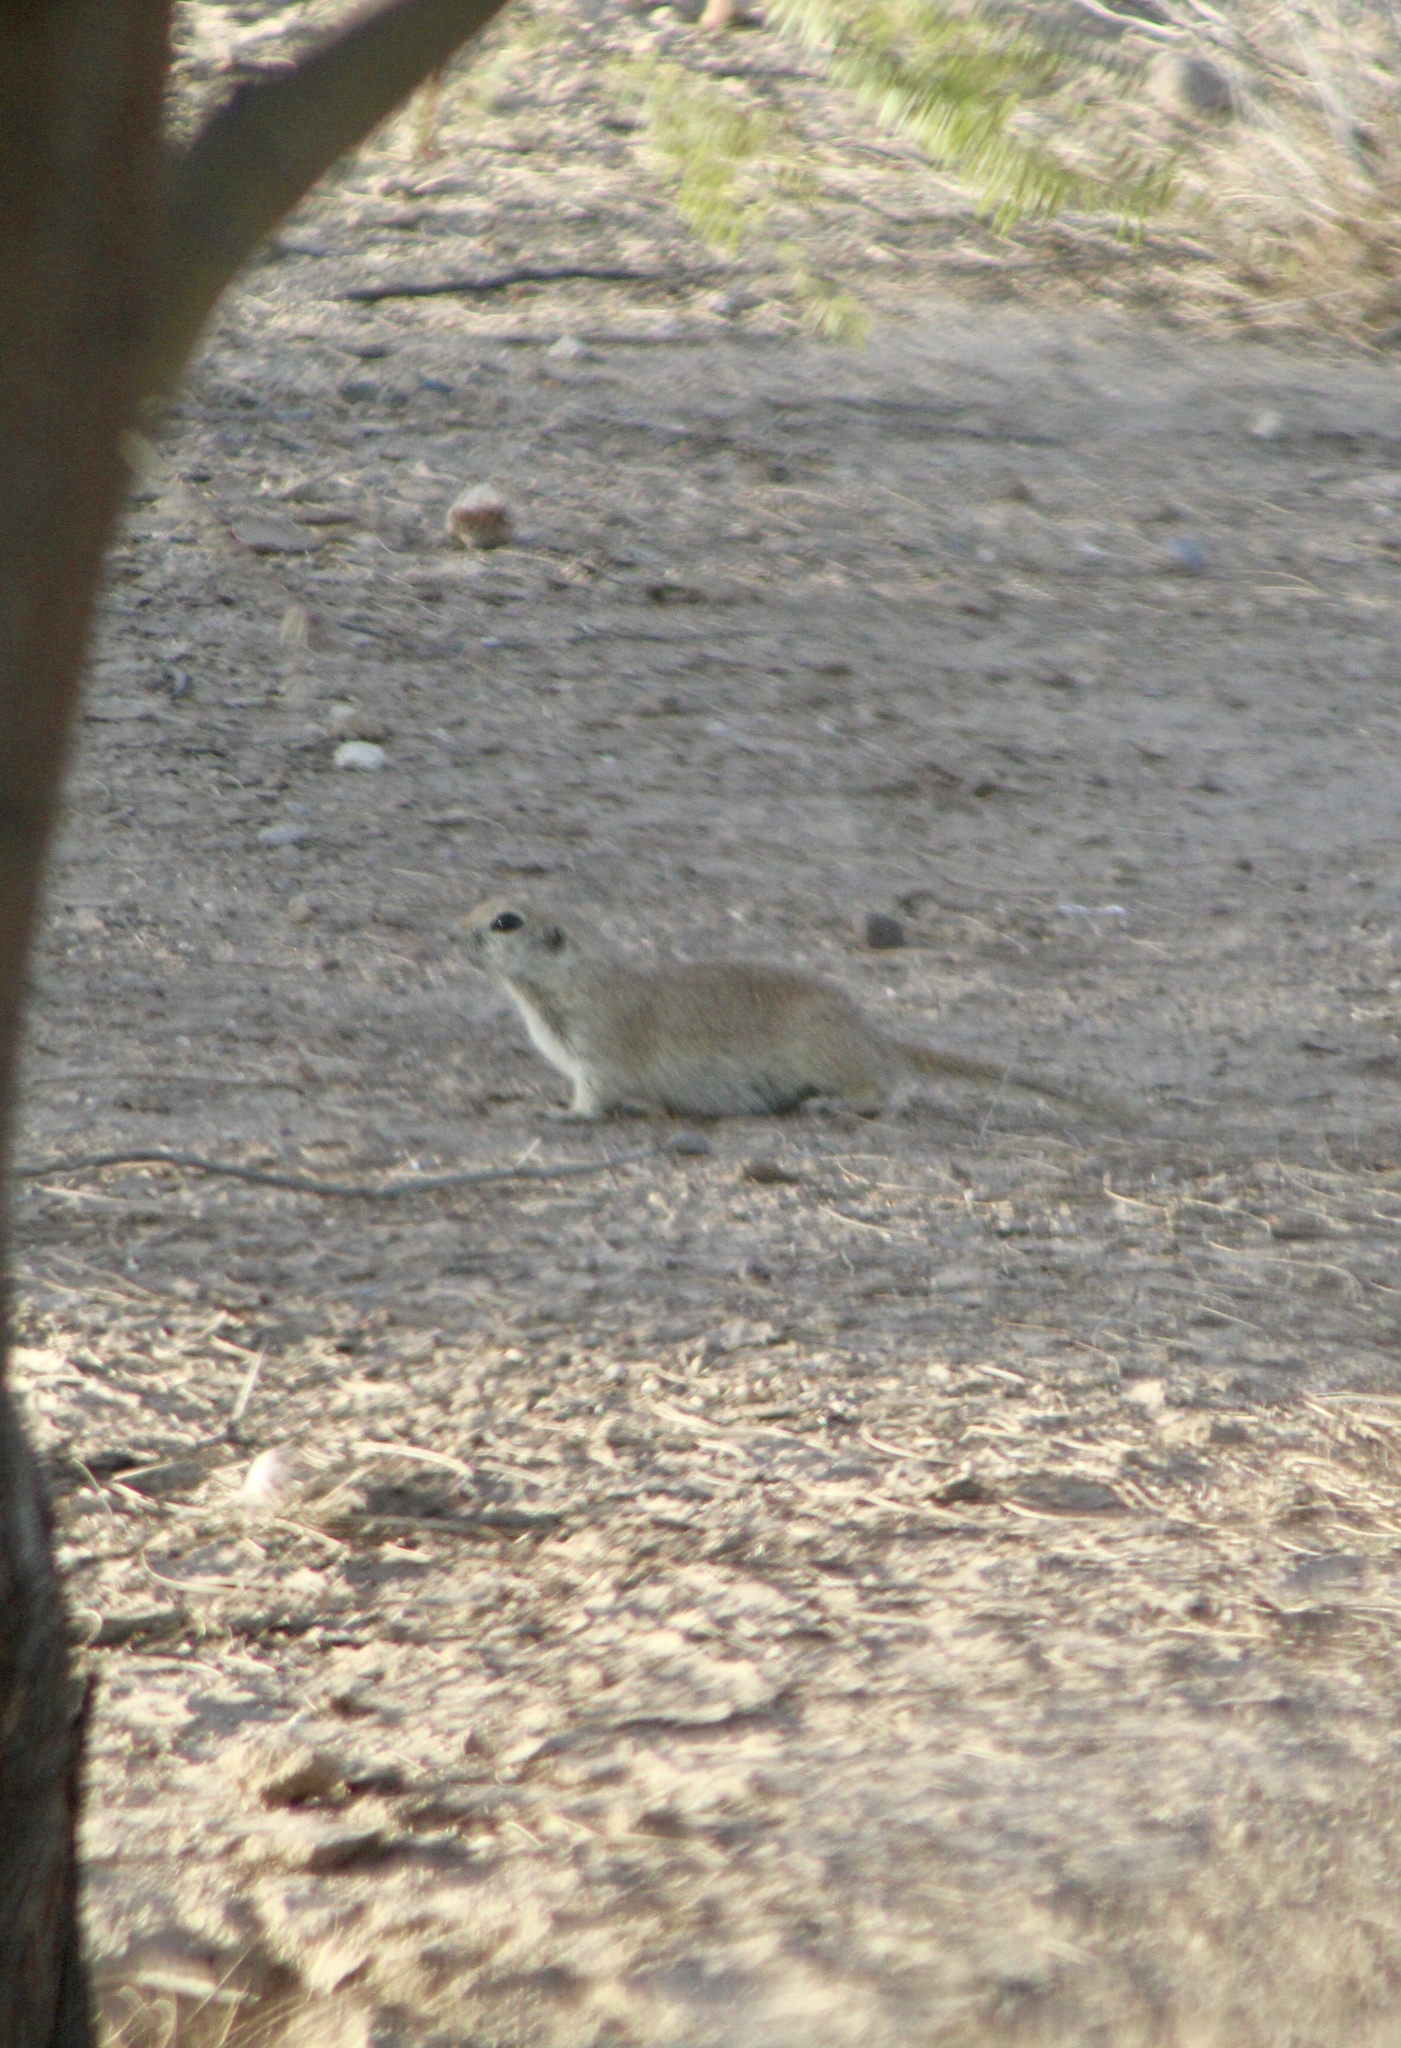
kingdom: Animalia
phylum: Chordata
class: Mammalia
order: Rodentia
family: Sciuridae
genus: Xerospermophilus
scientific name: Xerospermophilus tereticaudus
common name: Round-tailed ground squirrel
